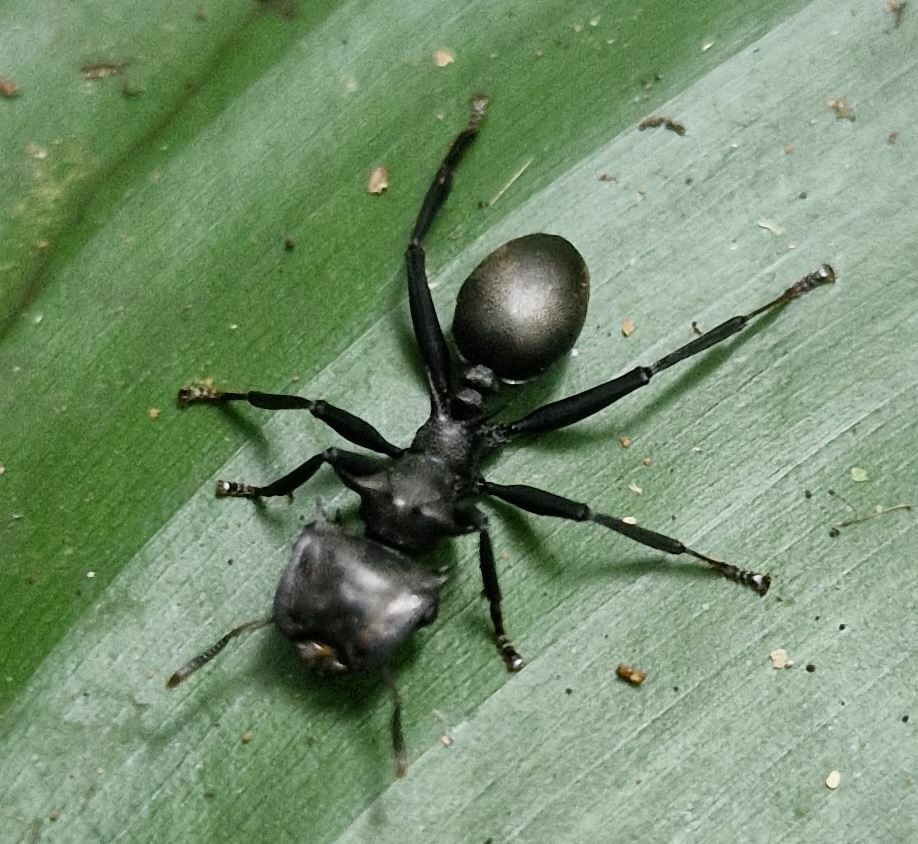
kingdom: Animalia
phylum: Arthropoda
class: Insecta
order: Hymenoptera
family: Formicidae
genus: Cephalotes
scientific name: Cephalotes atratus
